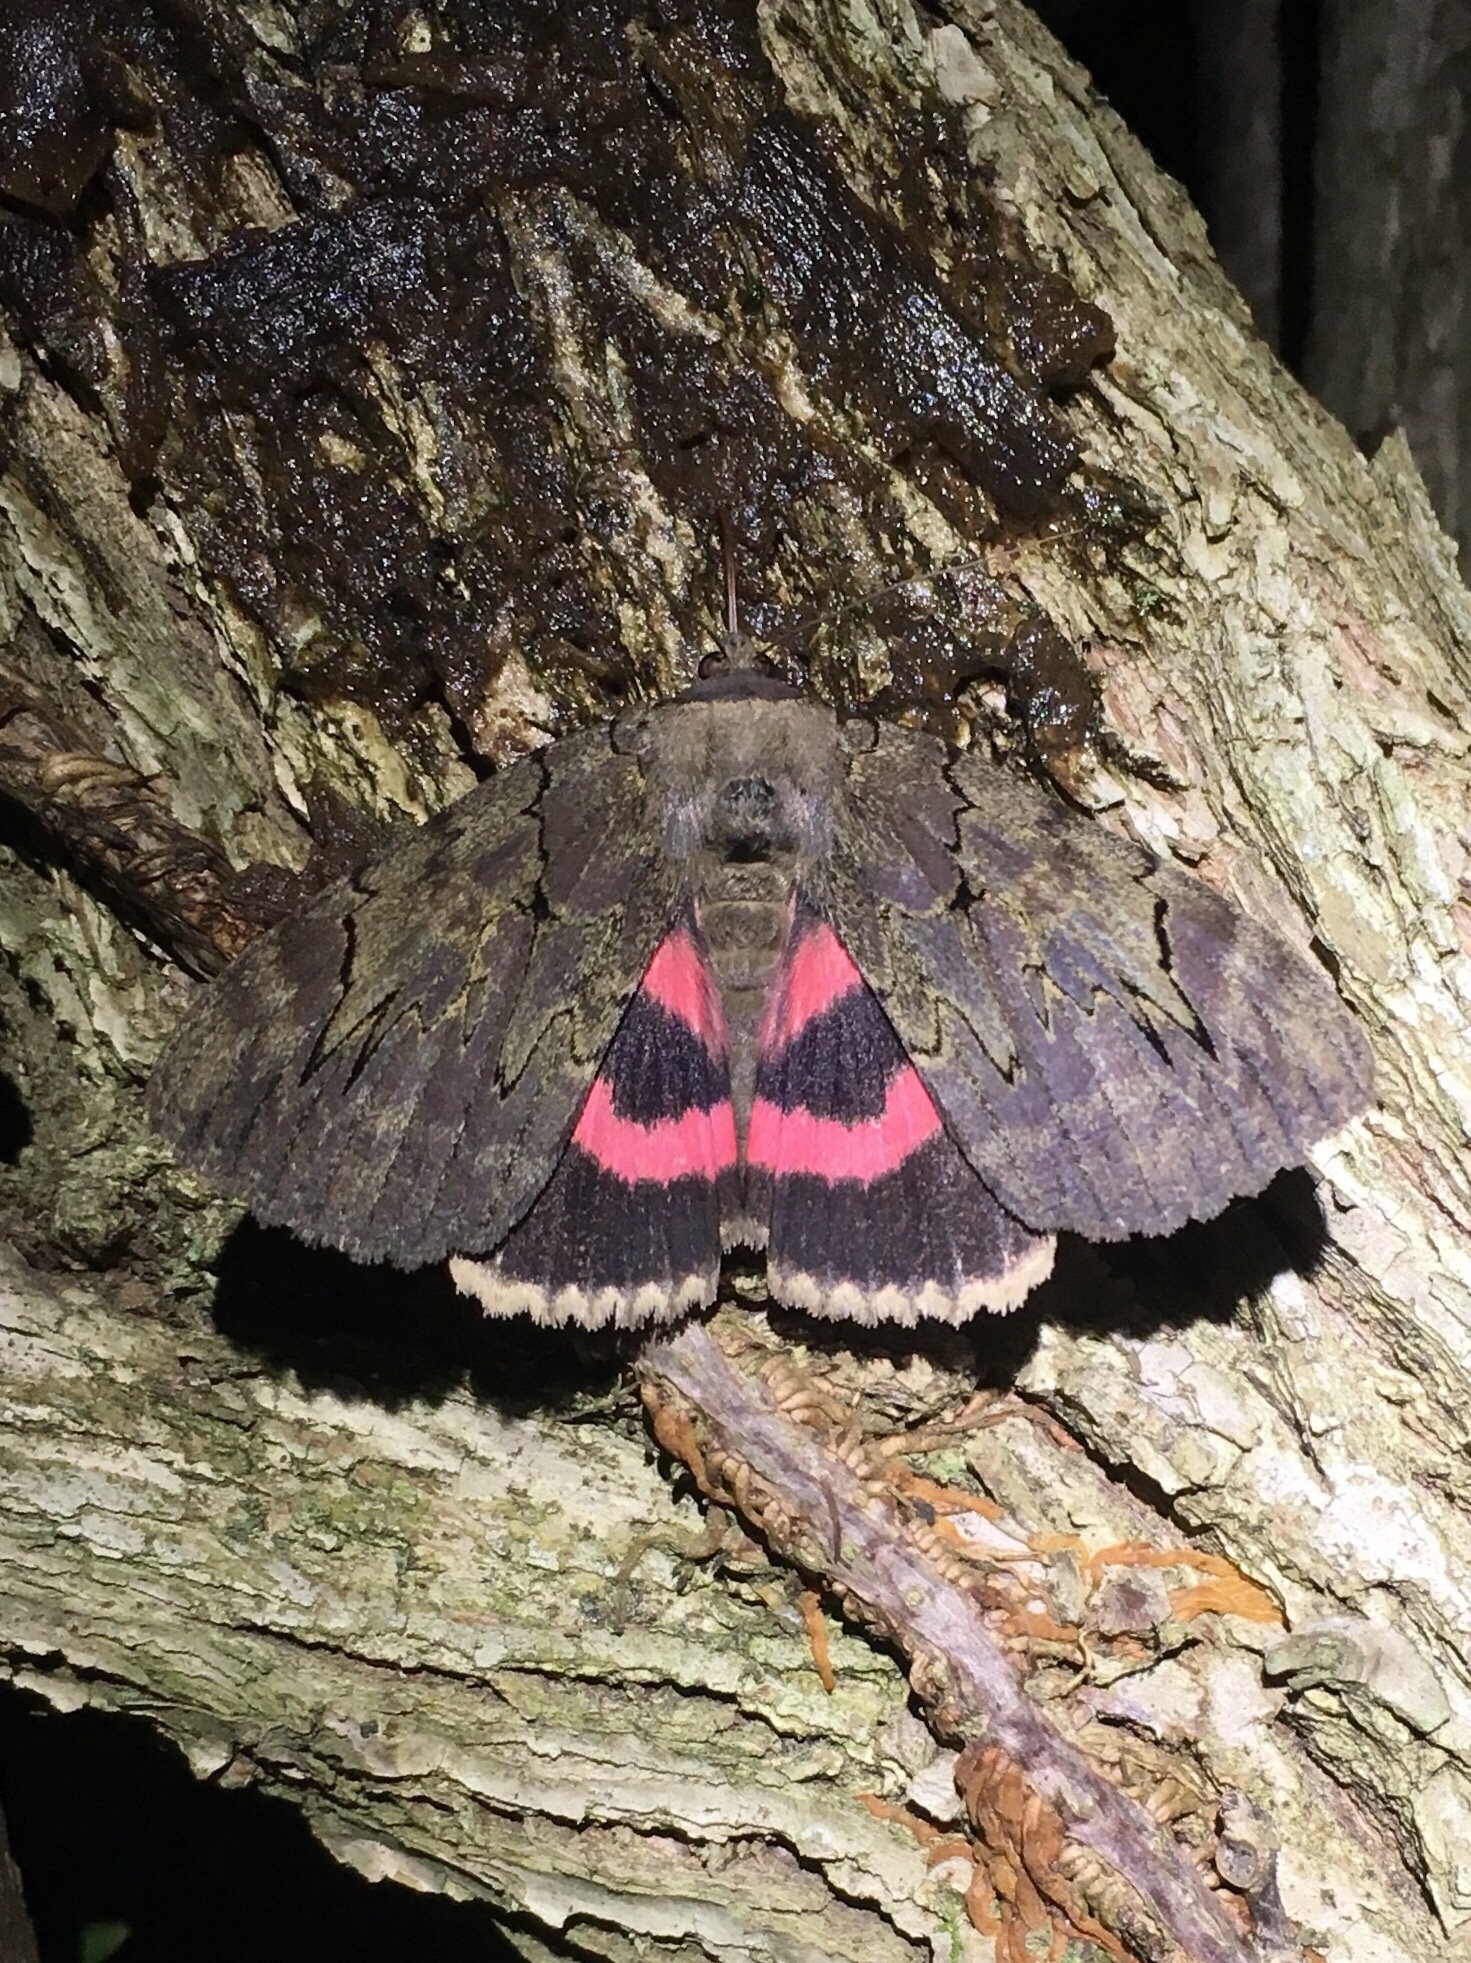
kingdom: Animalia
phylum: Arthropoda
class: Insecta
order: Lepidoptera
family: Erebidae
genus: Catocala
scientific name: Catocala cara
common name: Darling underwing
